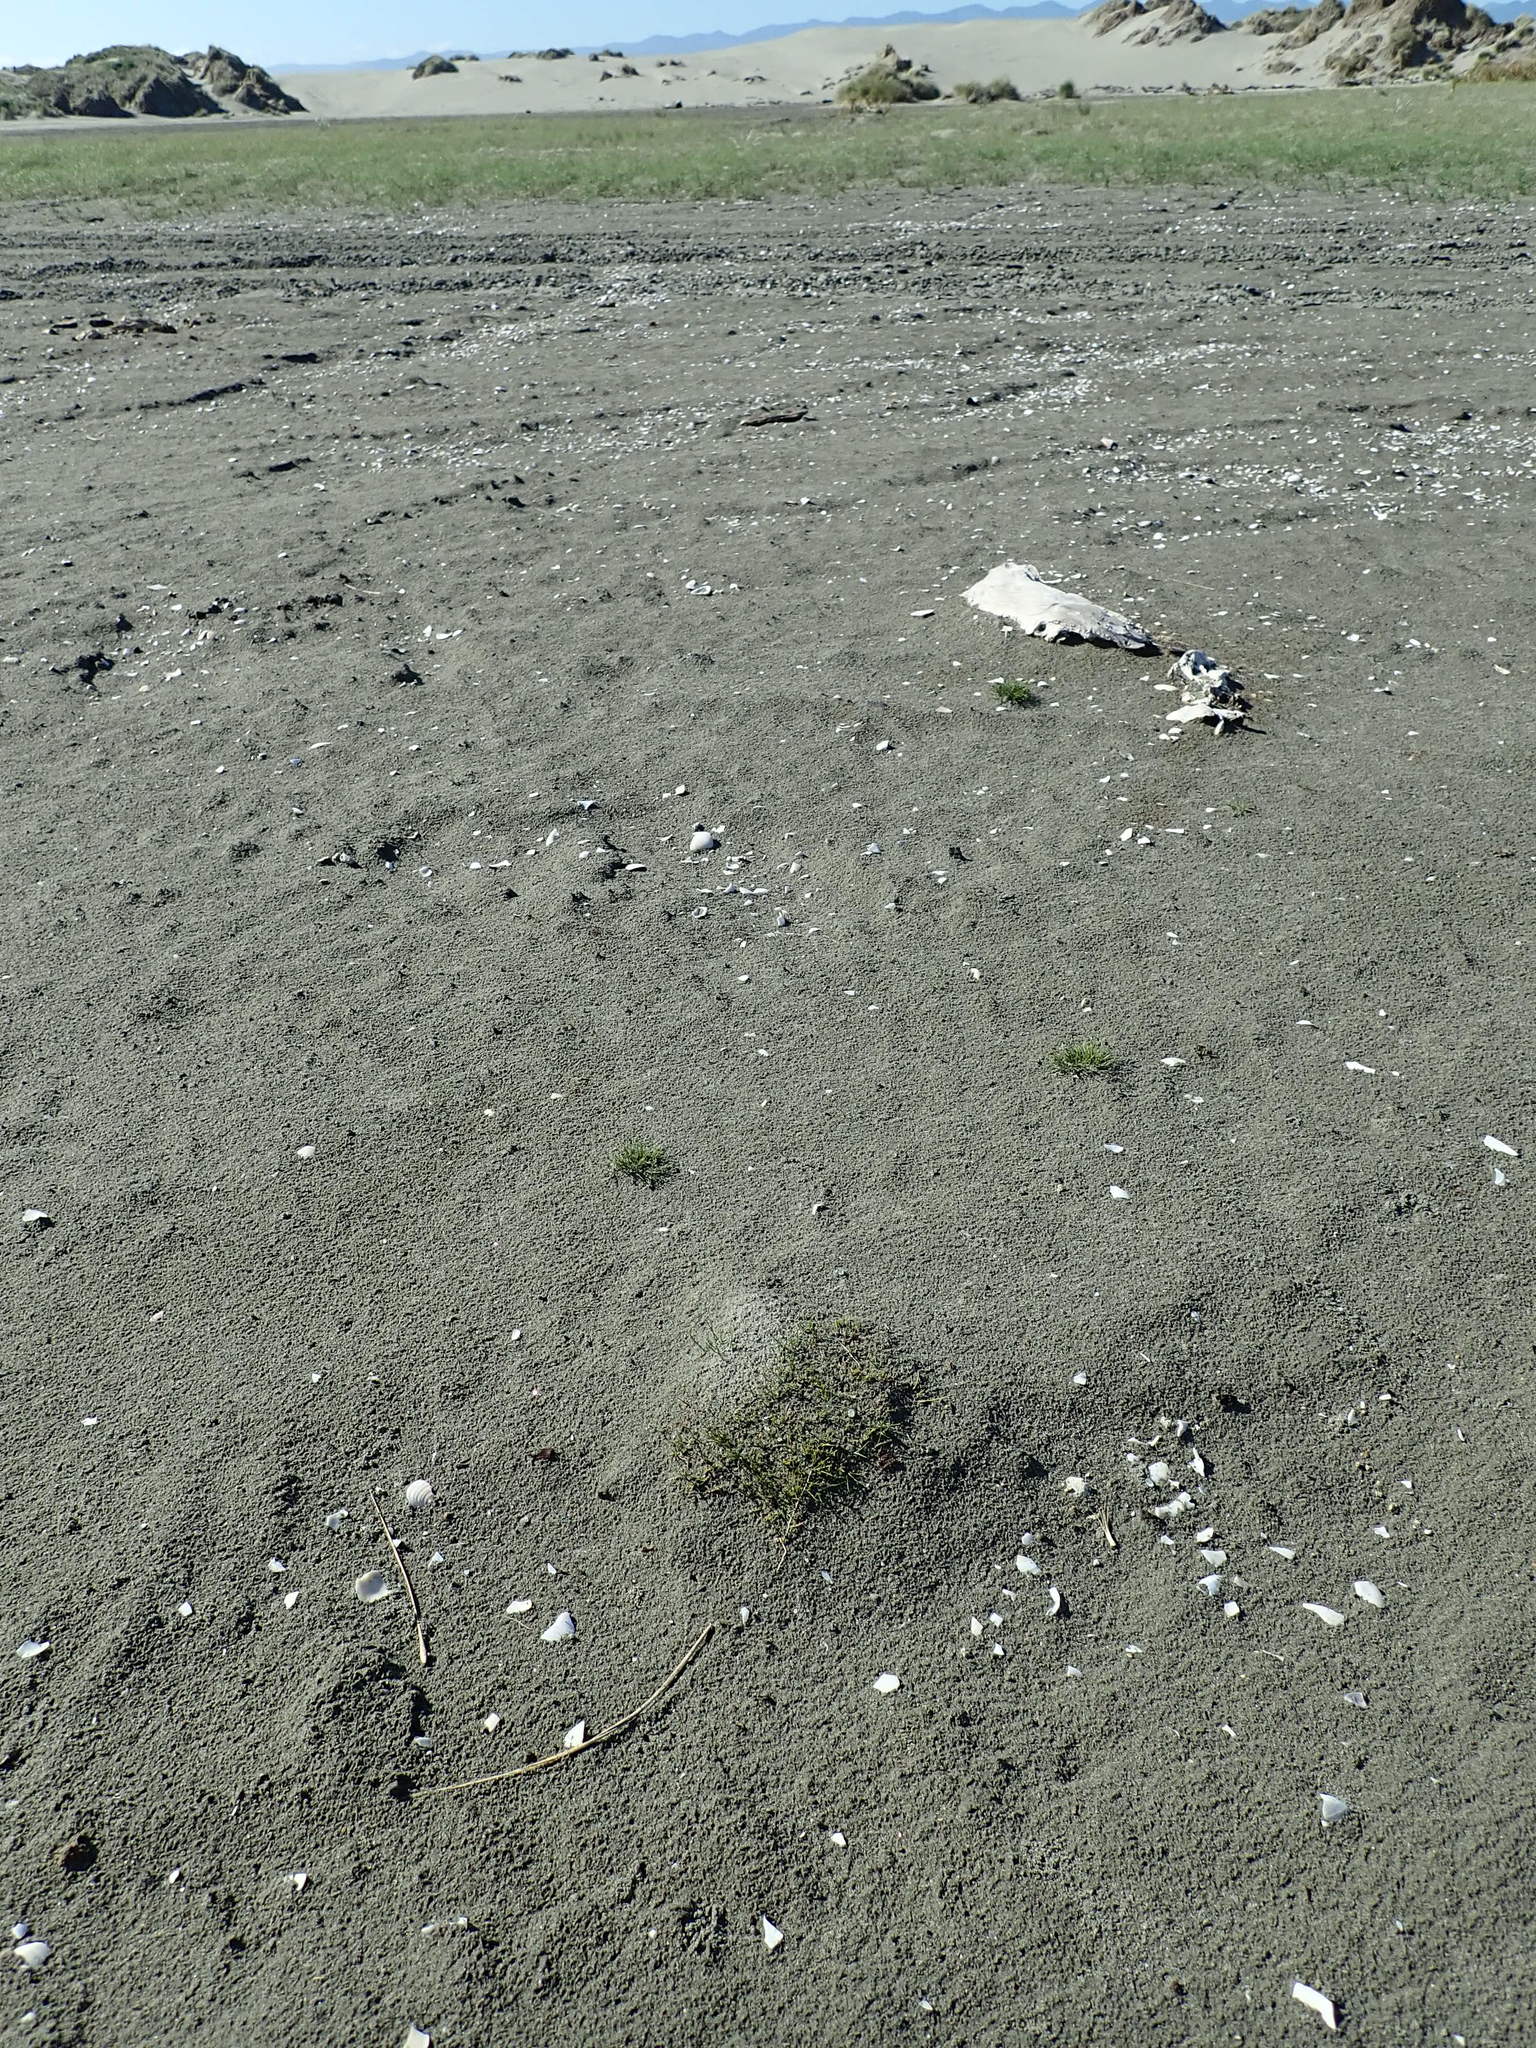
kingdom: Plantae
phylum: Tracheophyta
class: Liliopsida
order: Poales
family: Cyperaceae
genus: Isolepis
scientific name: Isolepis cernua
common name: Slender club-rush
